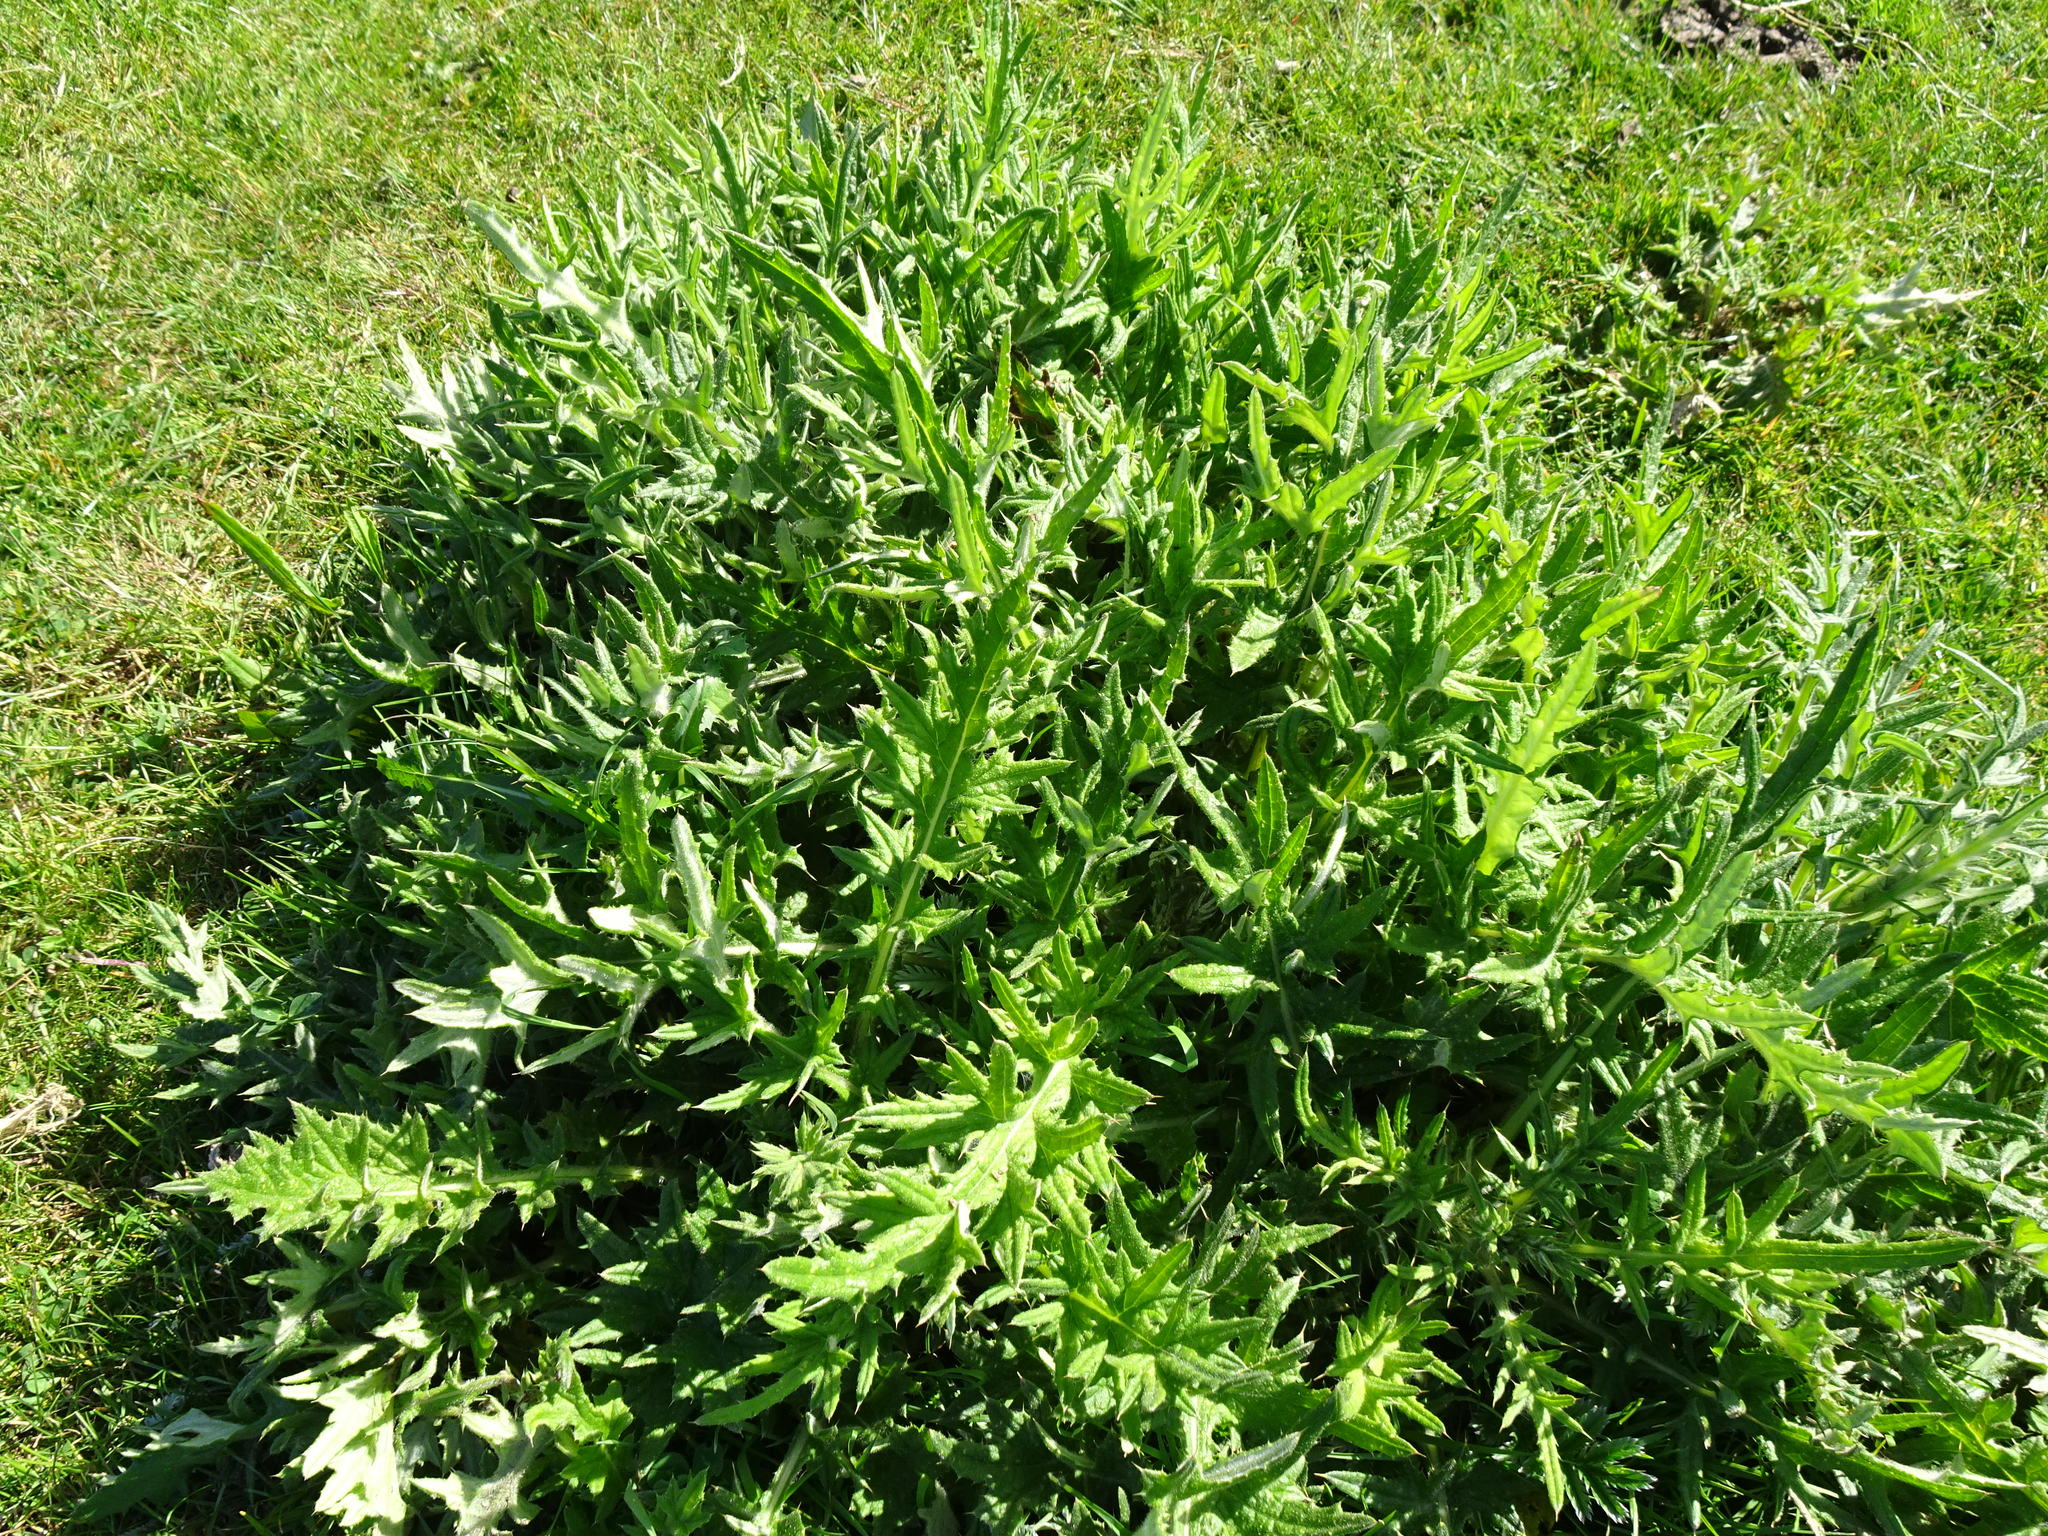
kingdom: Plantae
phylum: Tracheophyta
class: Magnoliopsida
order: Asterales
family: Asteraceae
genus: Cirsium
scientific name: Cirsium vulgare
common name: Bull thistle
